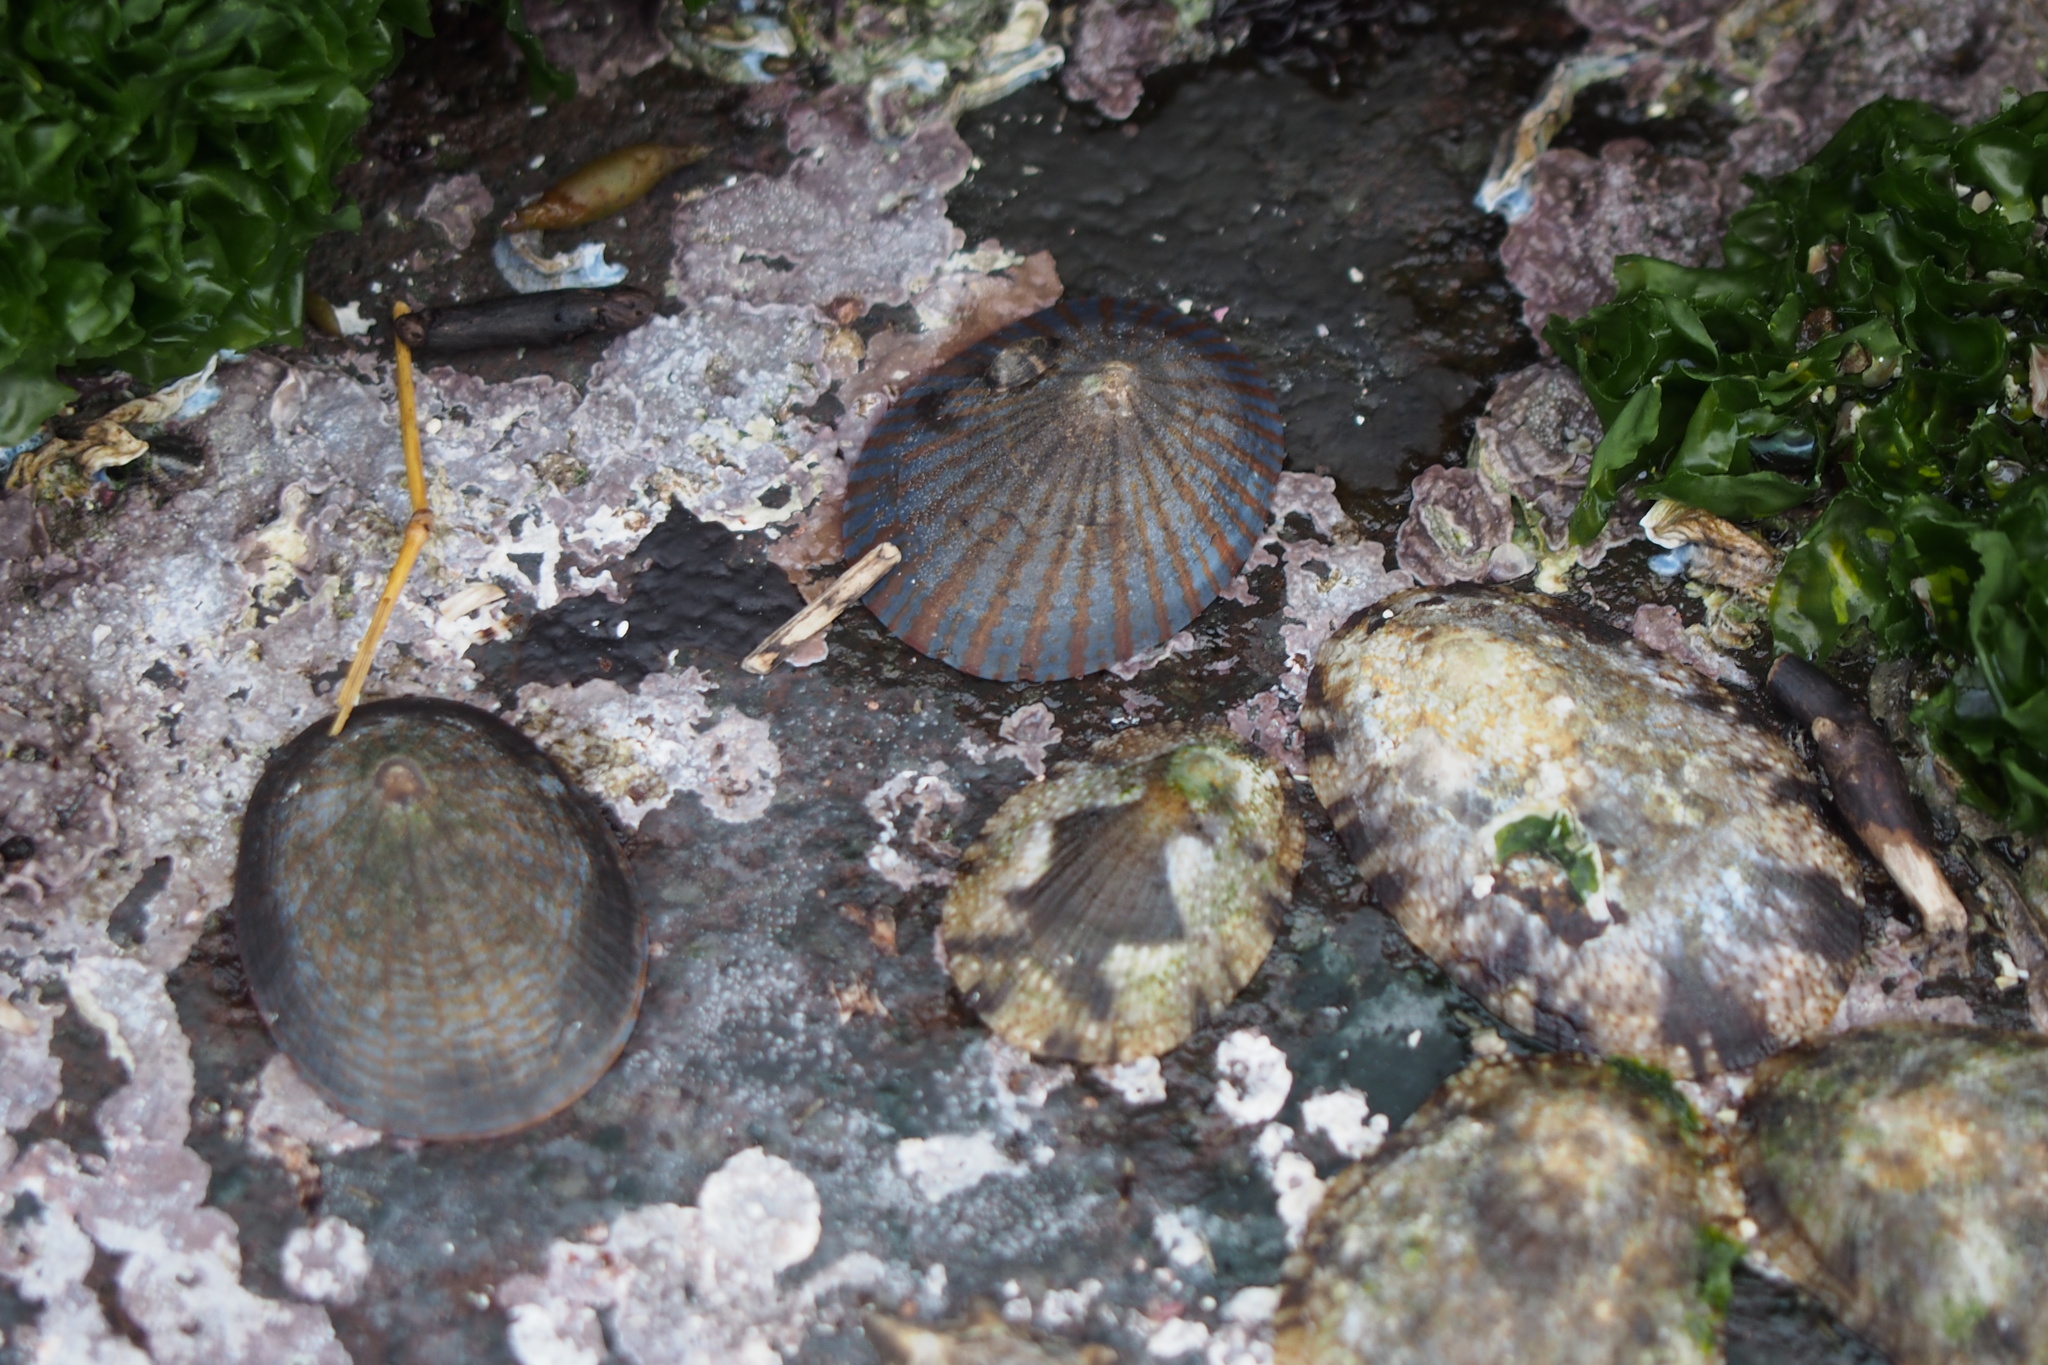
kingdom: Animalia
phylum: Mollusca
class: Gastropoda
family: Nacellidae
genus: Cellana
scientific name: Cellana nigrolineata
